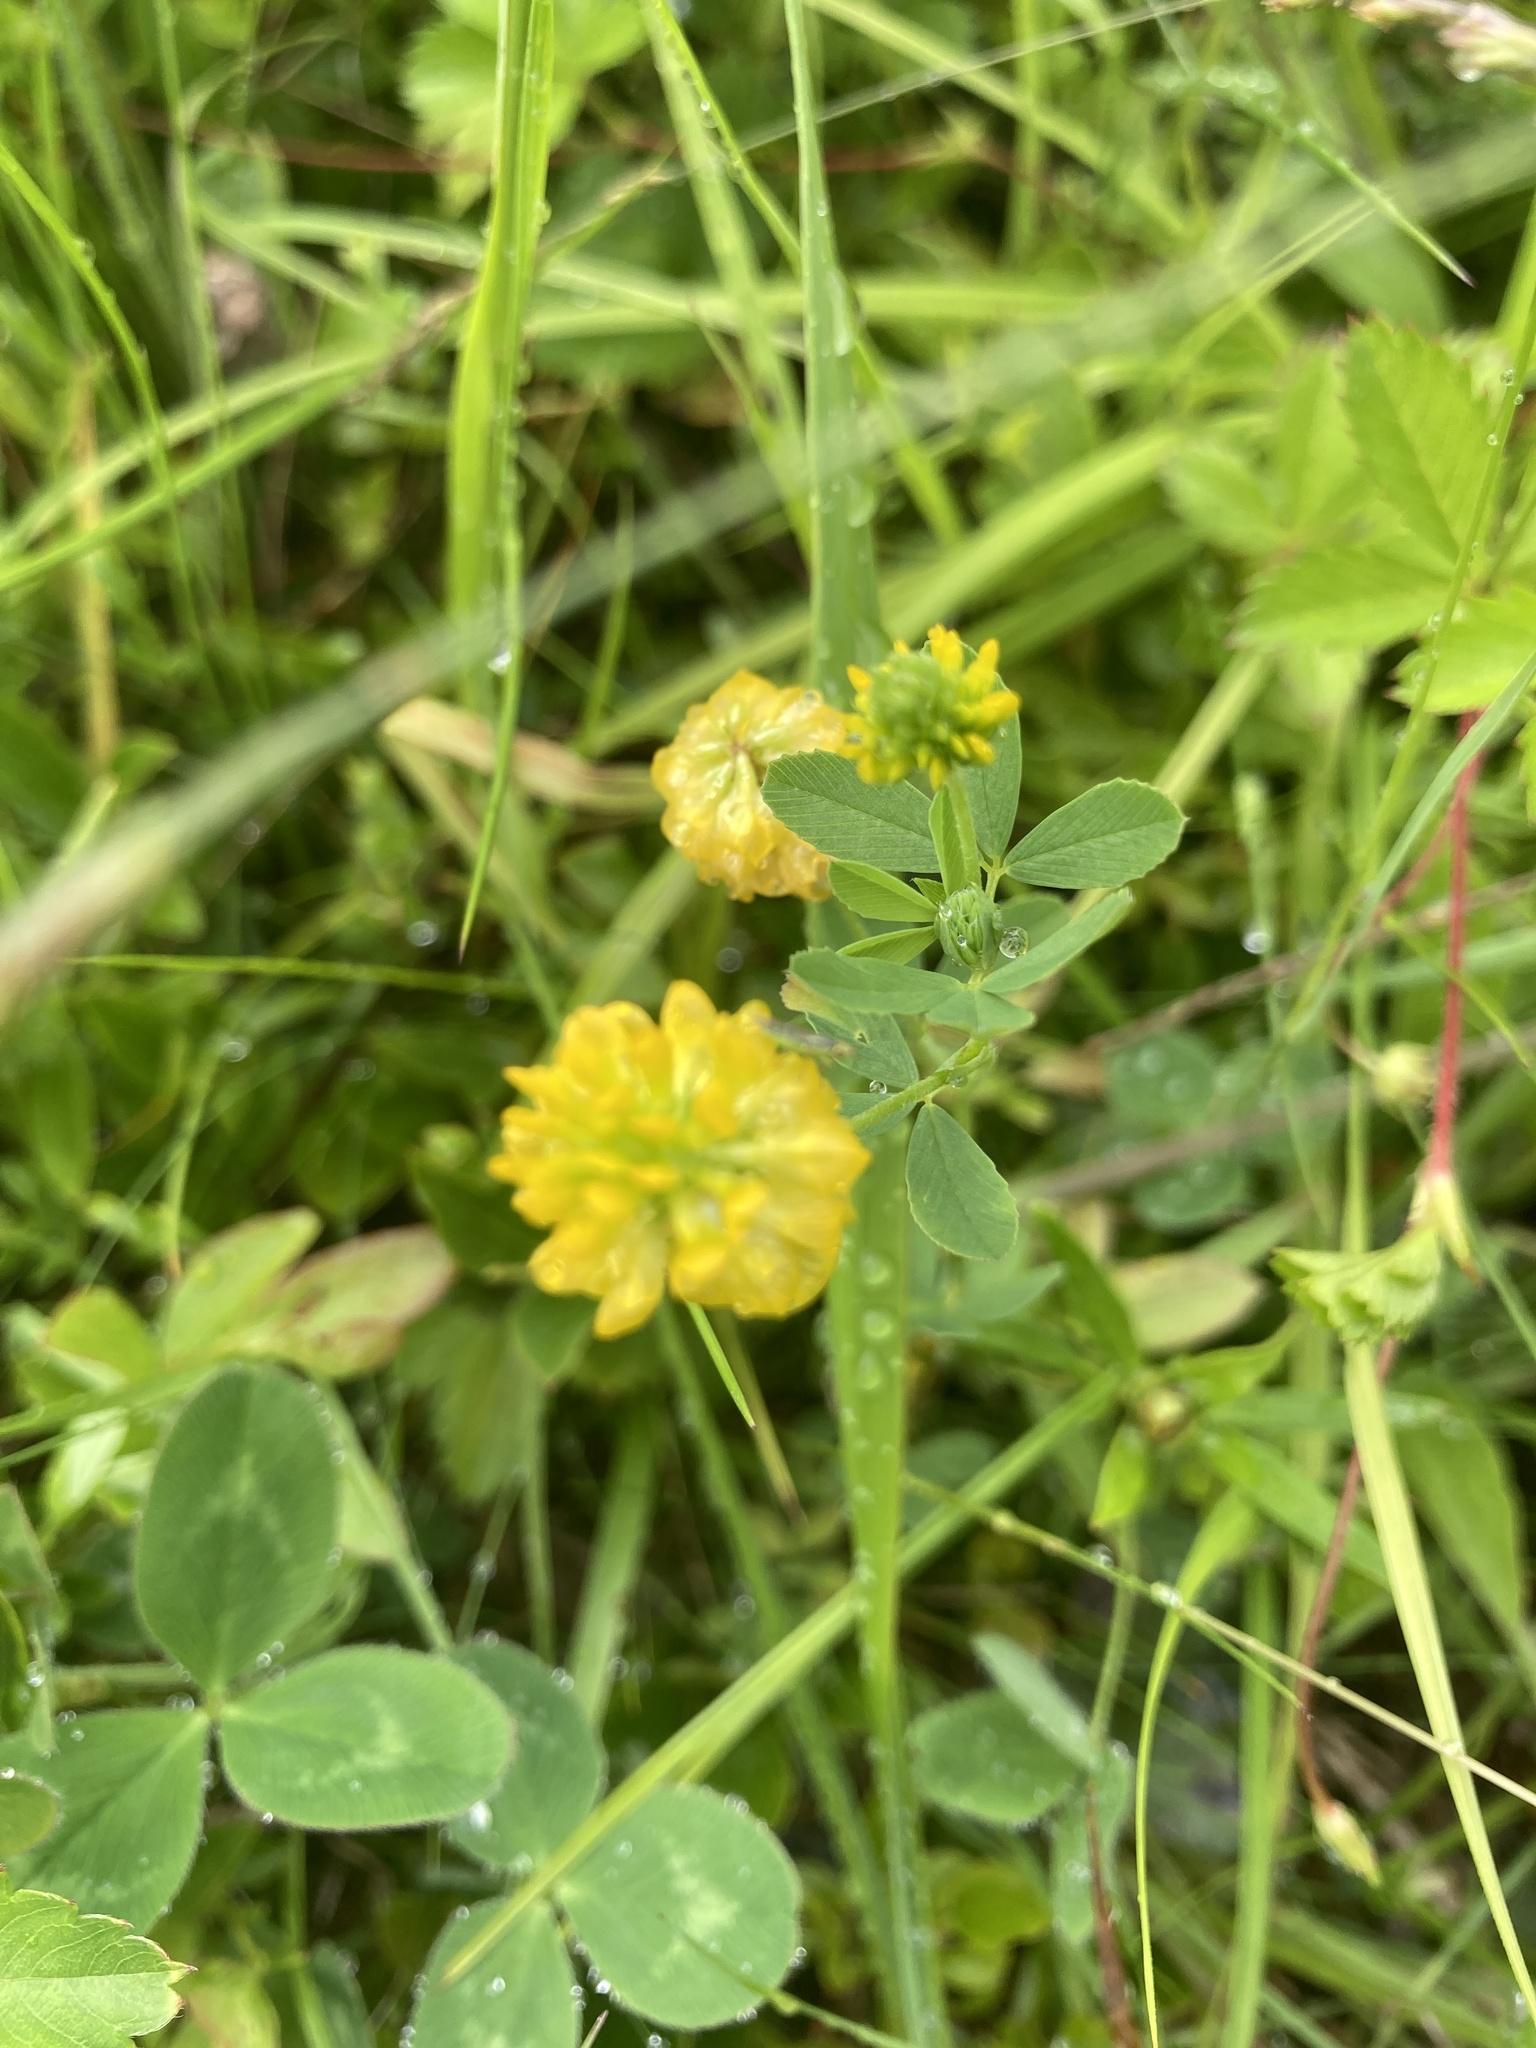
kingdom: Plantae
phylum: Tracheophyta
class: Magnoliopsida
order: Fabales
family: Fabaceae
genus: Trifolium
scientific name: Trifolium aureum
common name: Golden clover
